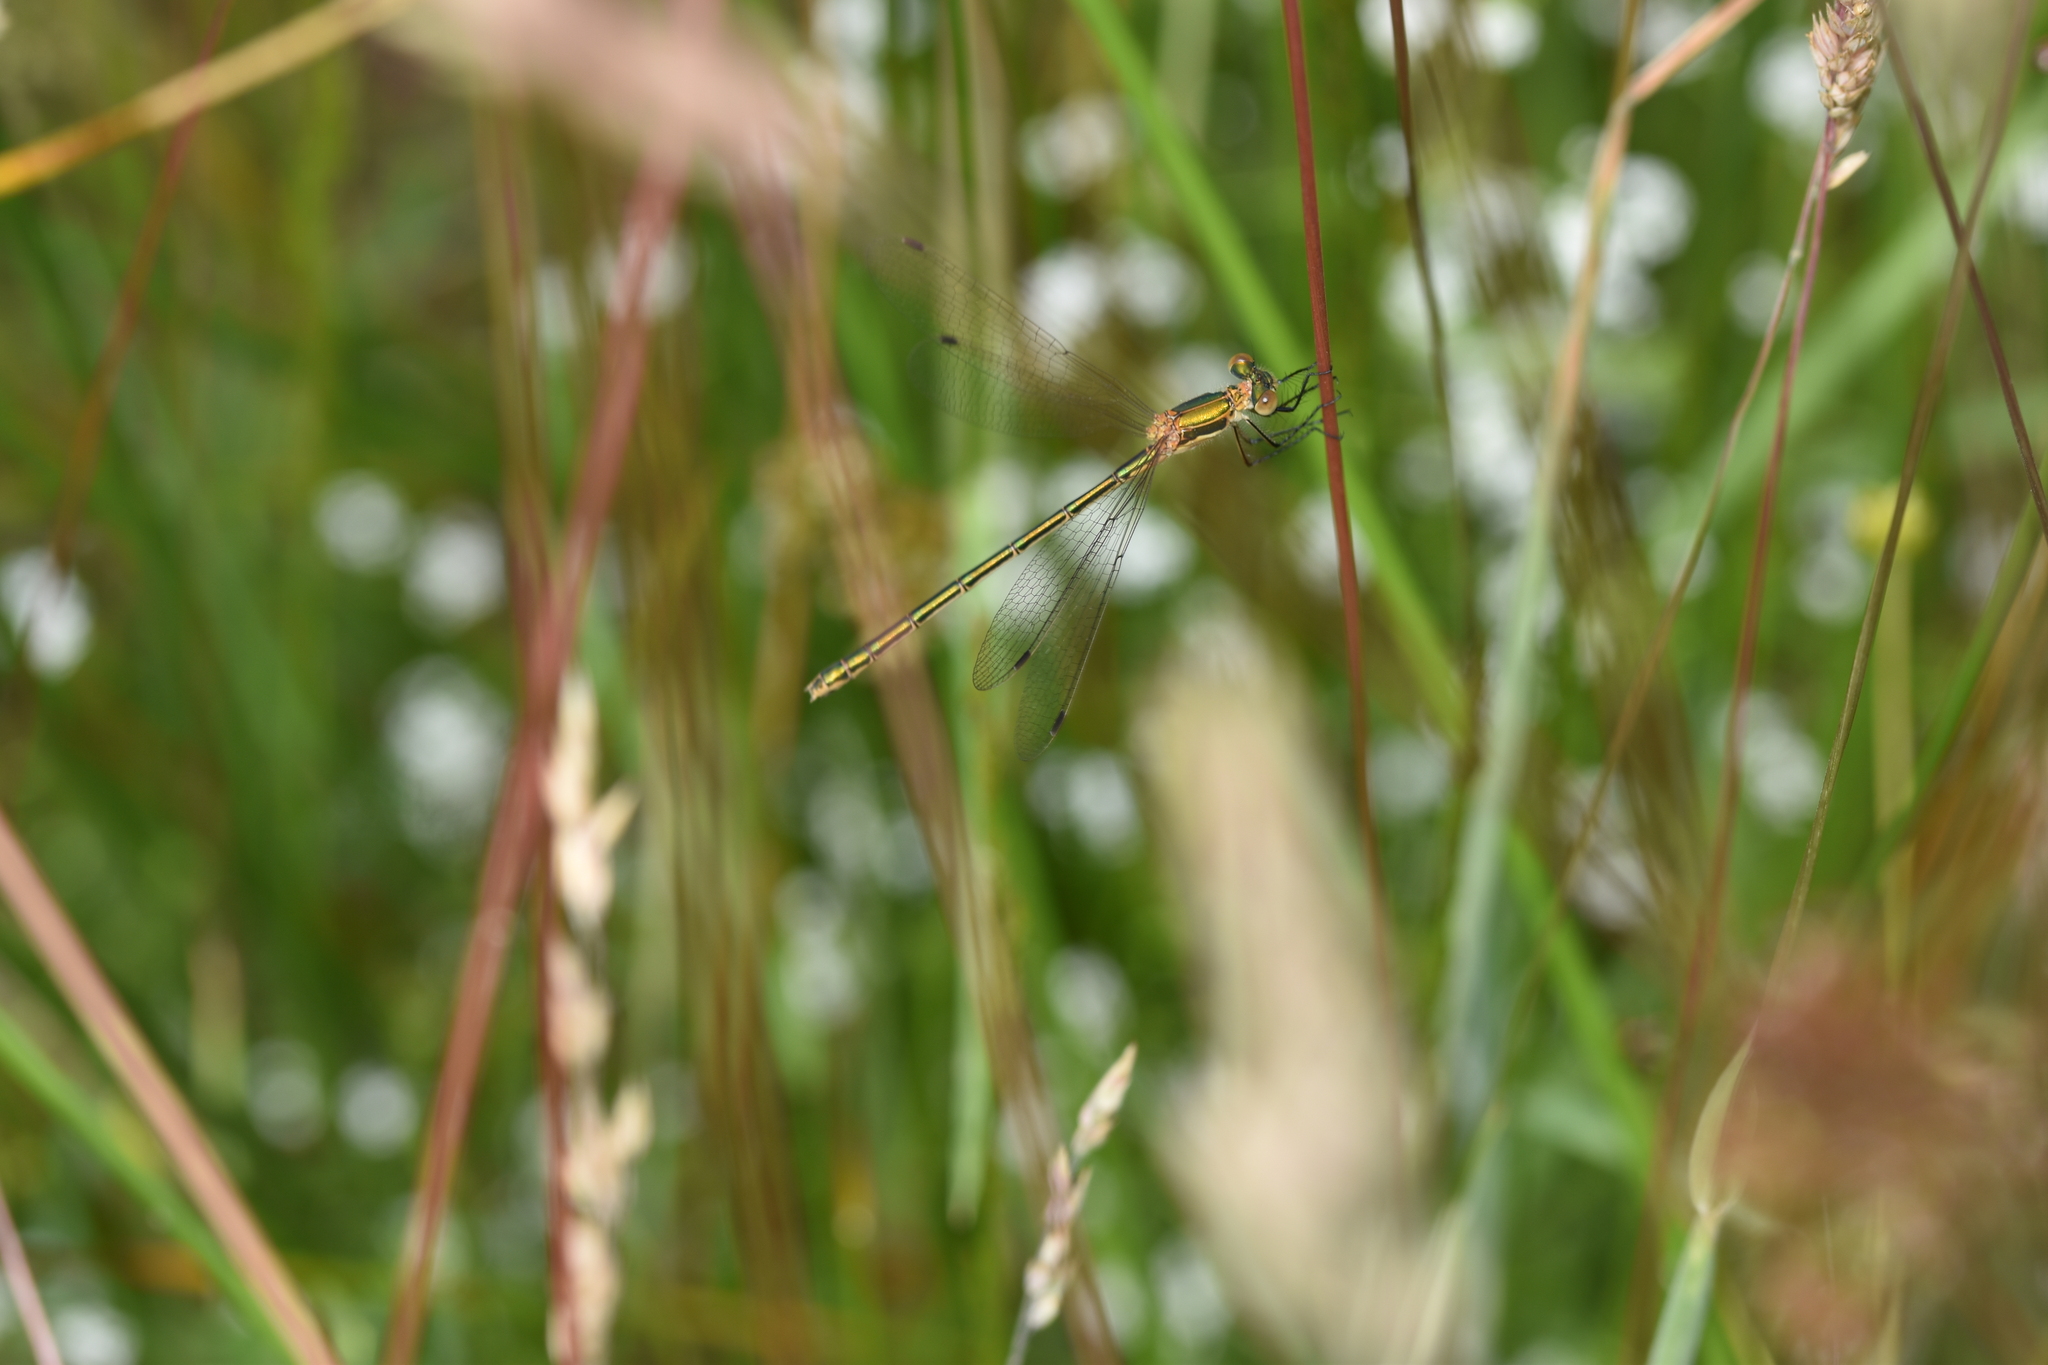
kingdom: Animalia
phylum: Arthropoda
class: Insecta
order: Odonata
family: Lestidae
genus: Lestes
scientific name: Lestes sponsa
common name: Common spreadwing
